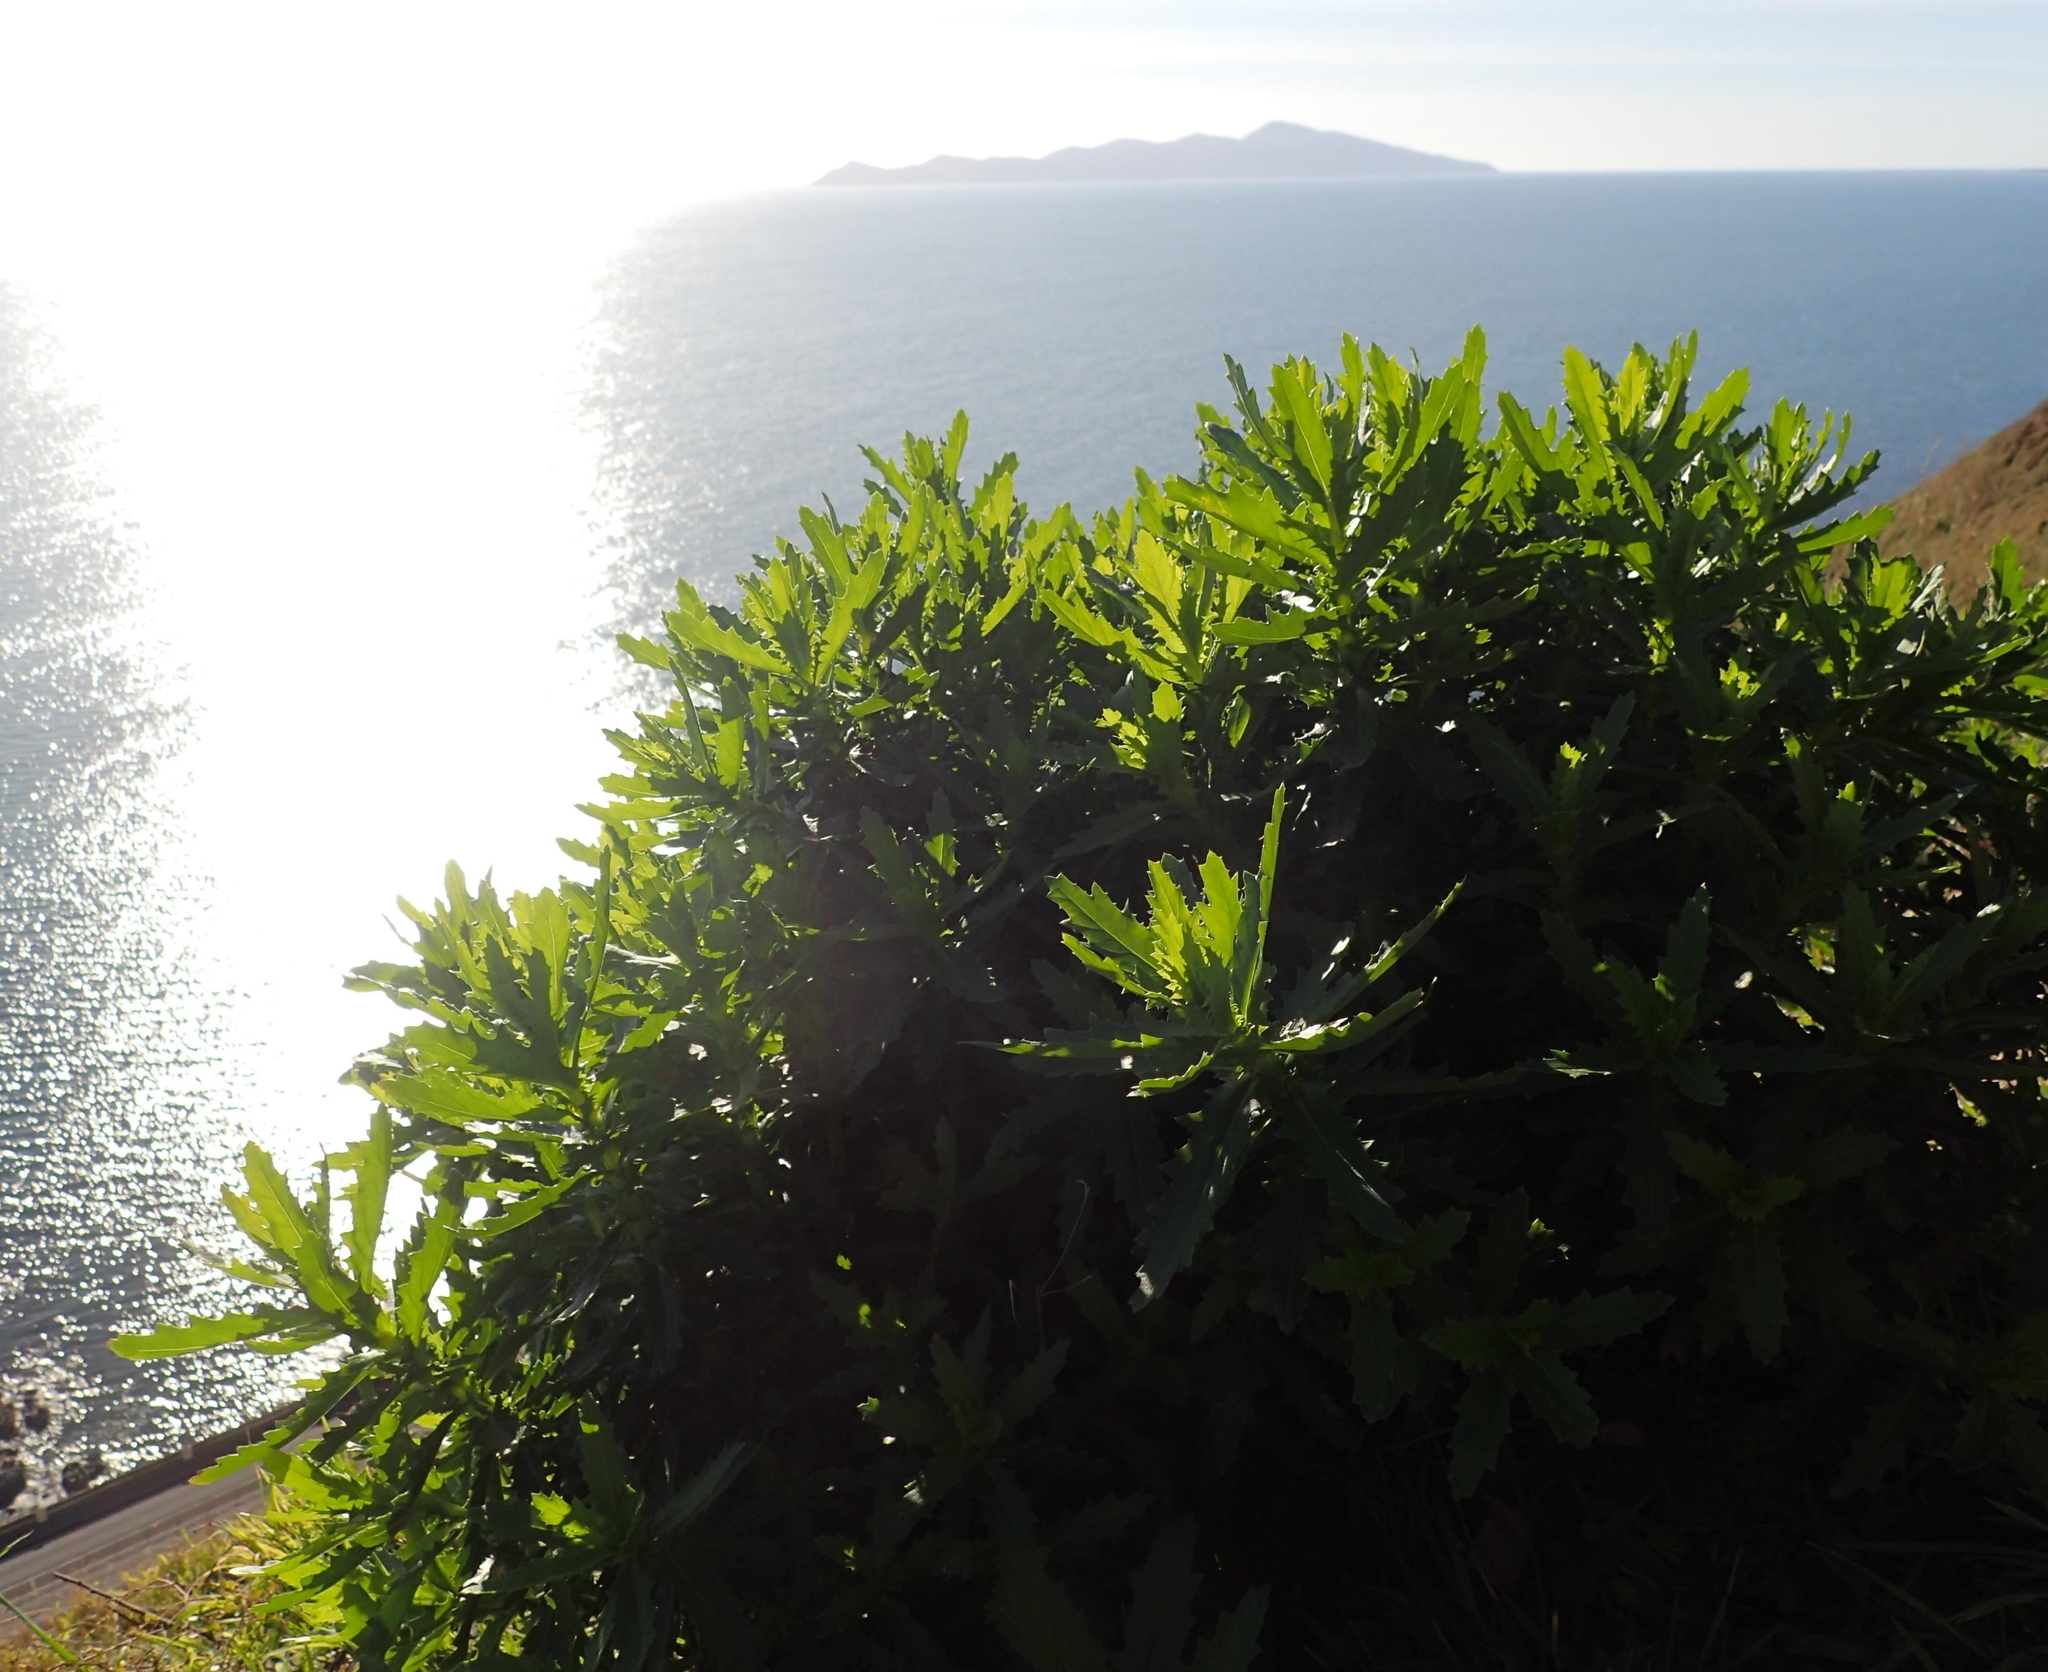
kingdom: Plantae
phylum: Tracheophyta
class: Magnoliopsida
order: Asterales
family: Asteraceae
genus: Senecio
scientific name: Senecio glastifolius
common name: Woad-leaved ragwort
